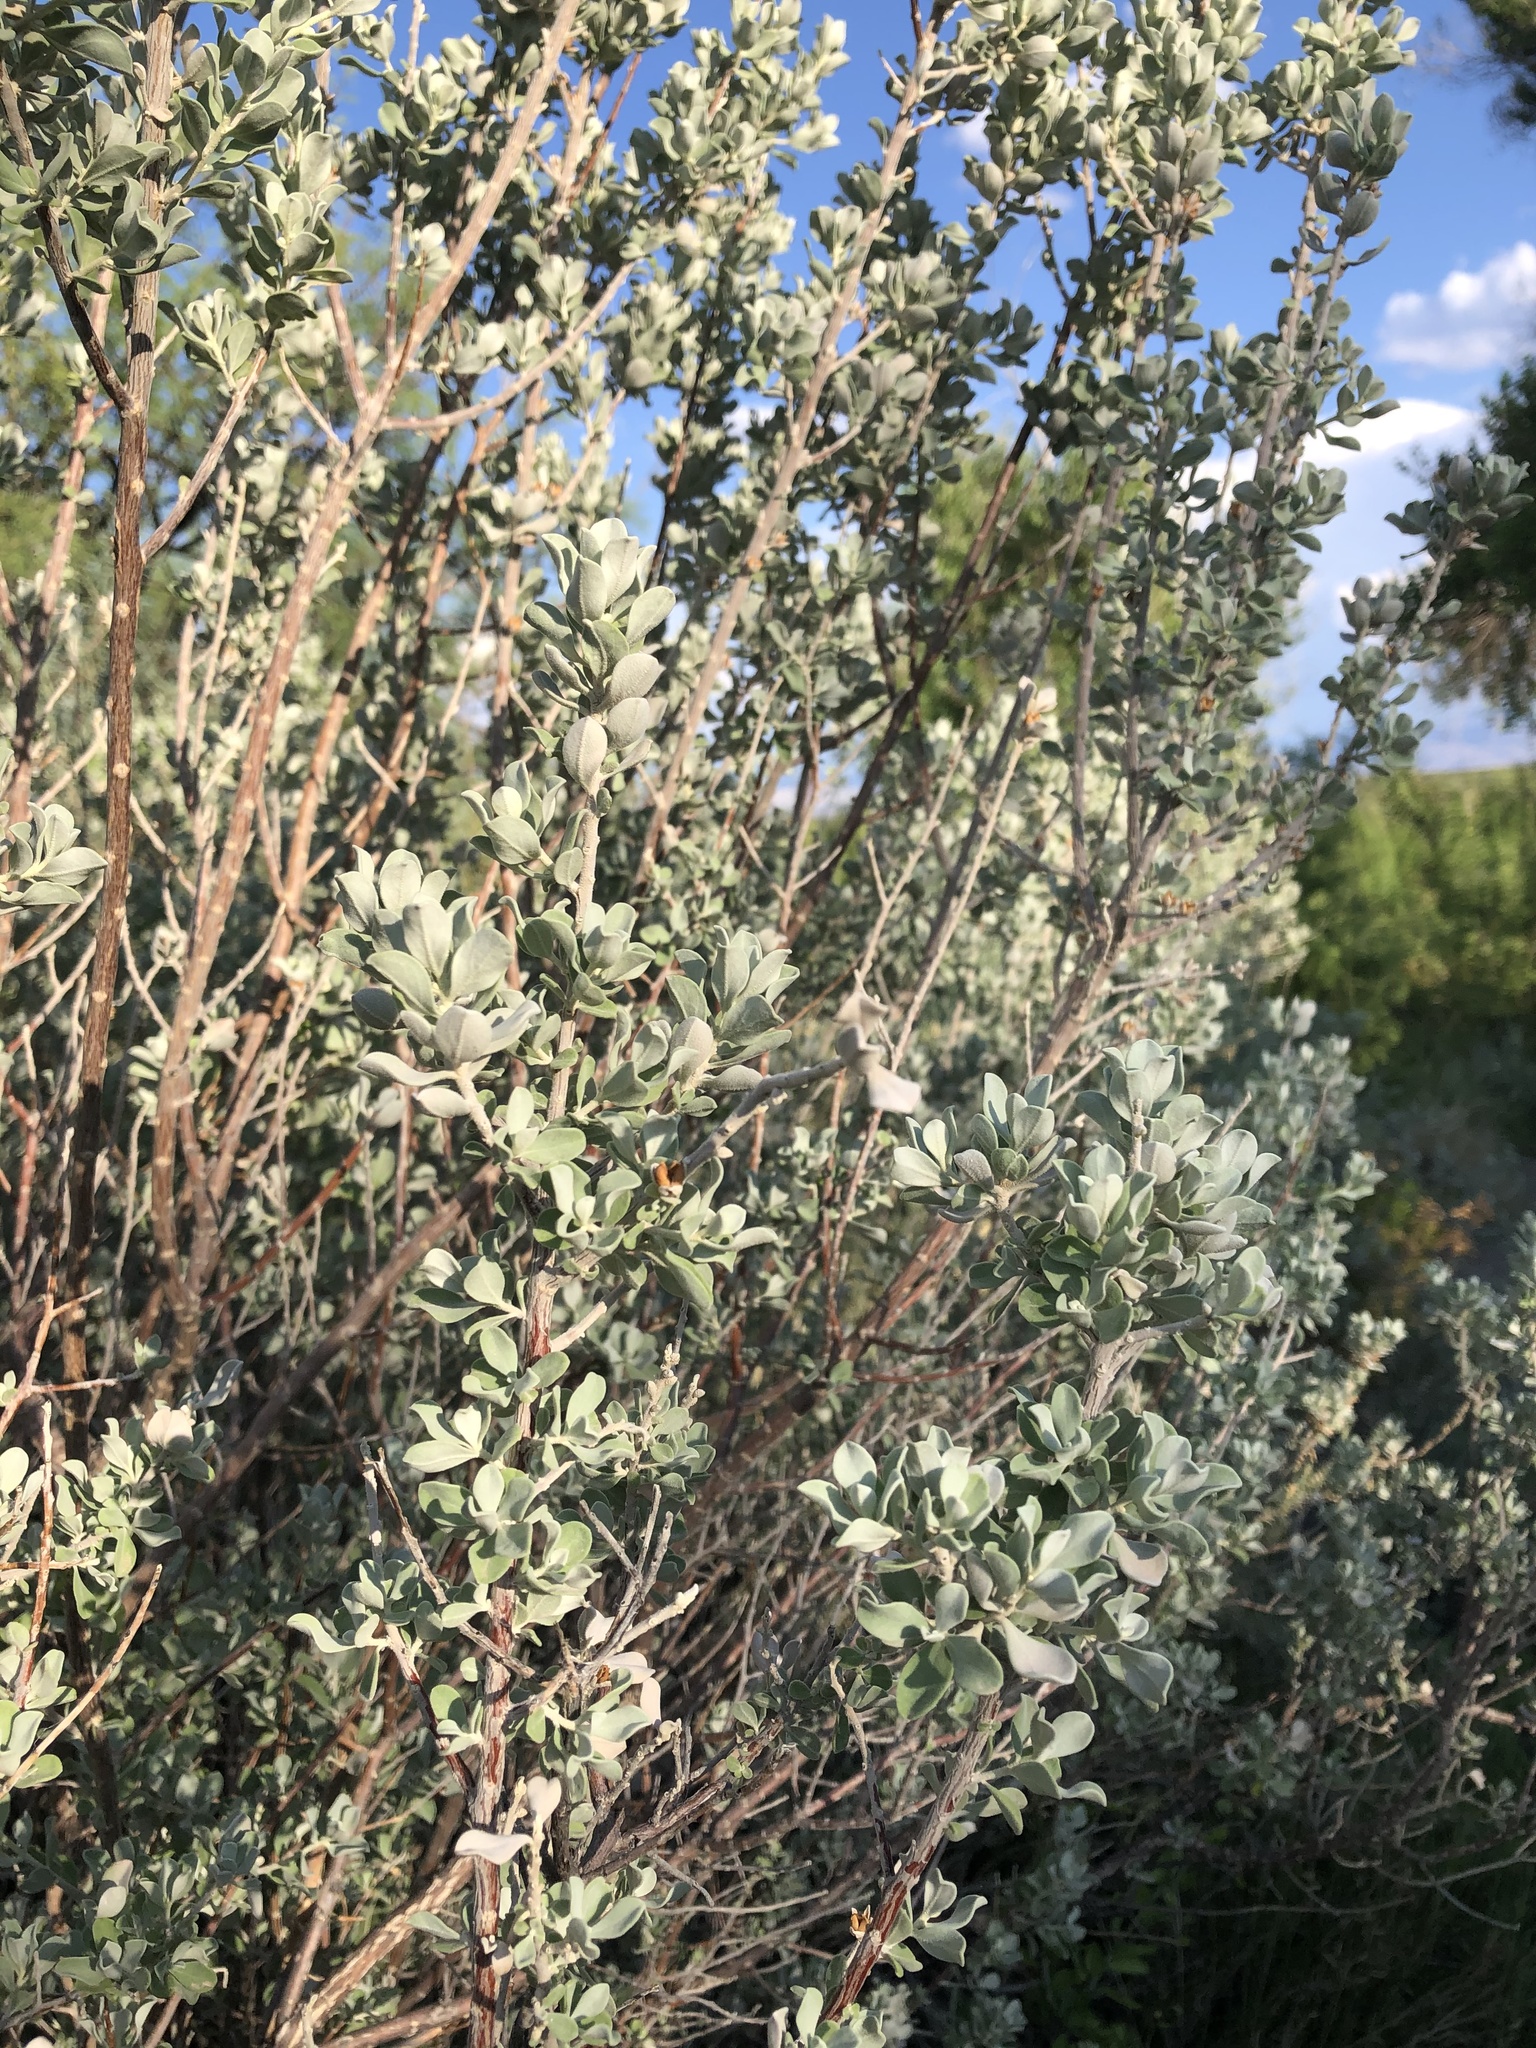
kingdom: Plantae
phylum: Tracheophyta
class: Magnoliopsida
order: Lamiales
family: Scrophulariaceae
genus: Leucophyllum
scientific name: Leucophyllum frutescens
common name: Texas silverleaf
